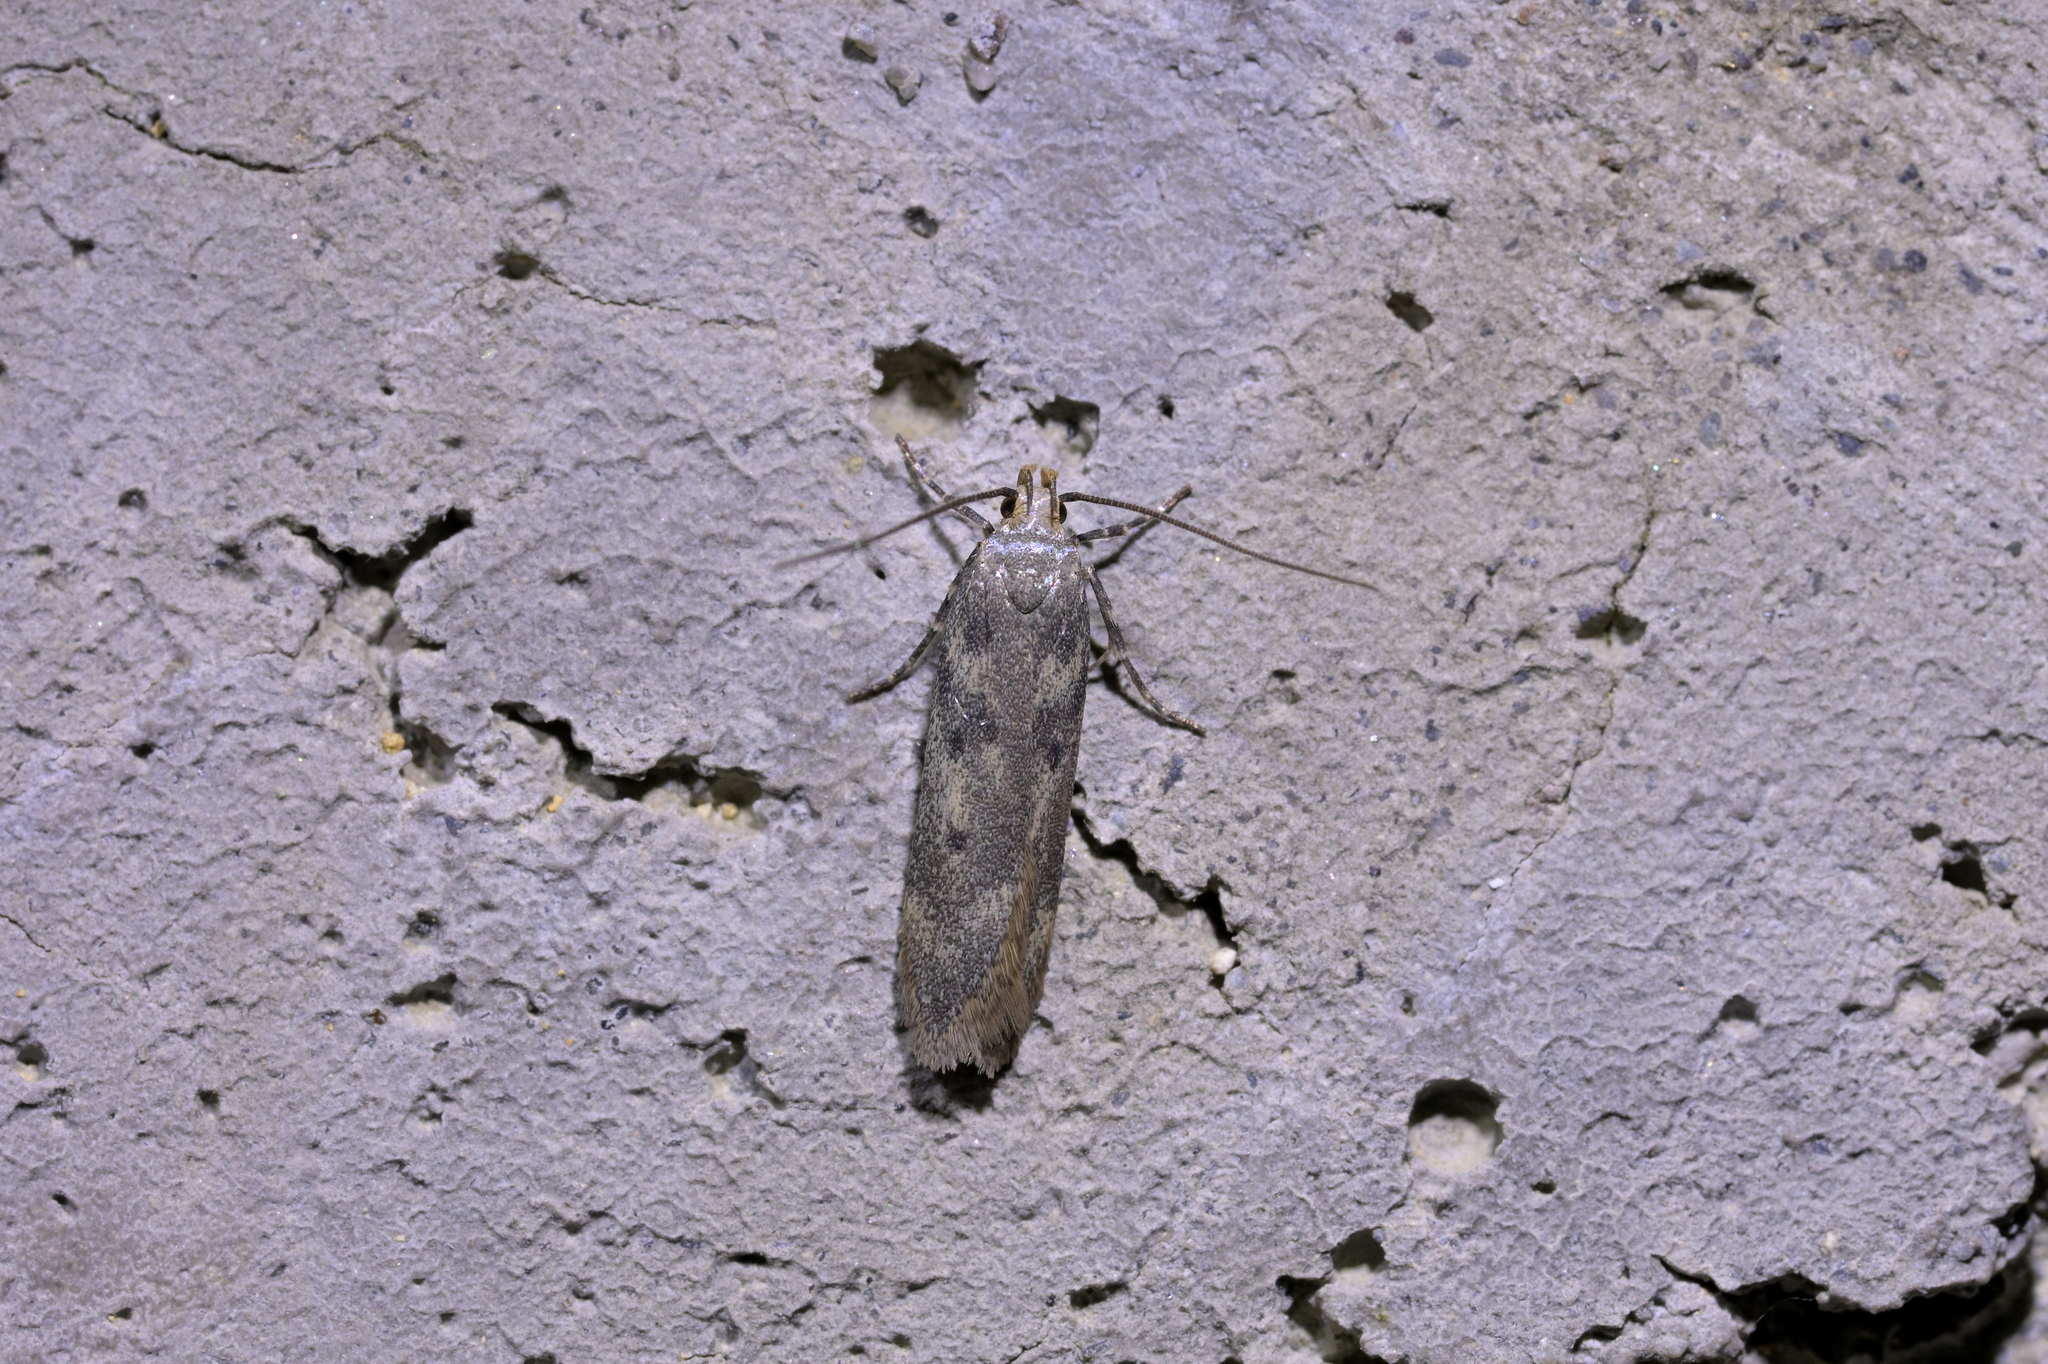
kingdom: Animalia
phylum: Arthropoda
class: Insecta
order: Lepidoptera
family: Gelechiidae
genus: Kiwaia
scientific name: Kiwaia lithodes
